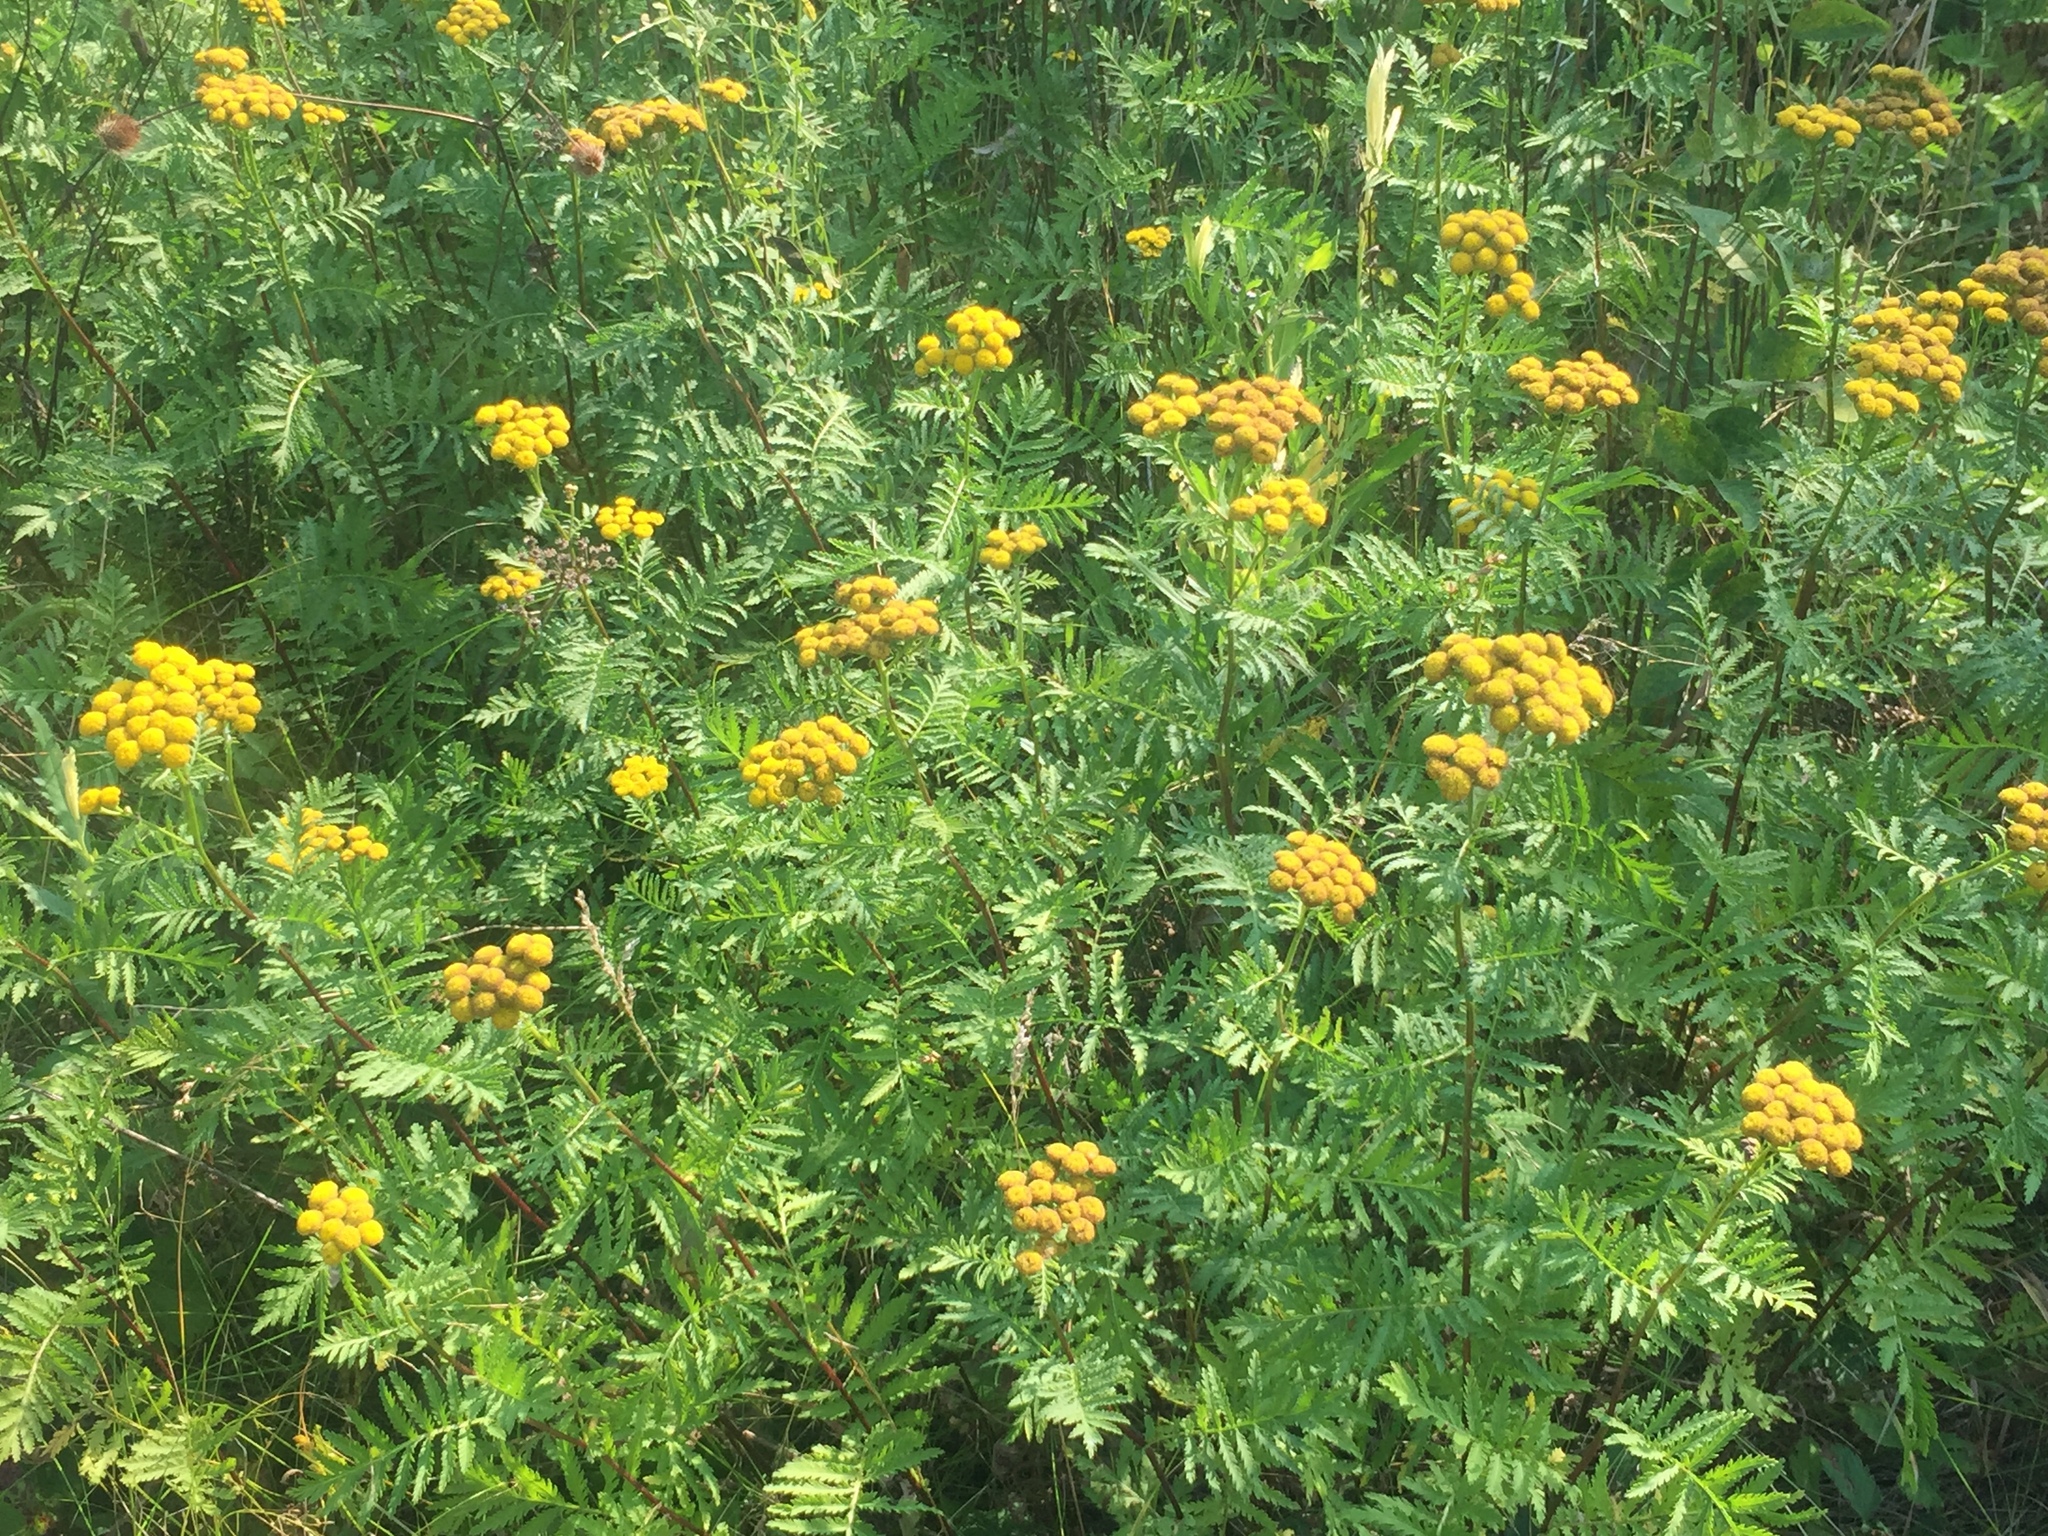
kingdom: Plantae
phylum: Tracheophyta
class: Magnoliopsida
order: Asterales
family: Asteraceae
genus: Tanacetum
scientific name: Tanacetum vulgare
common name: Common tansy
